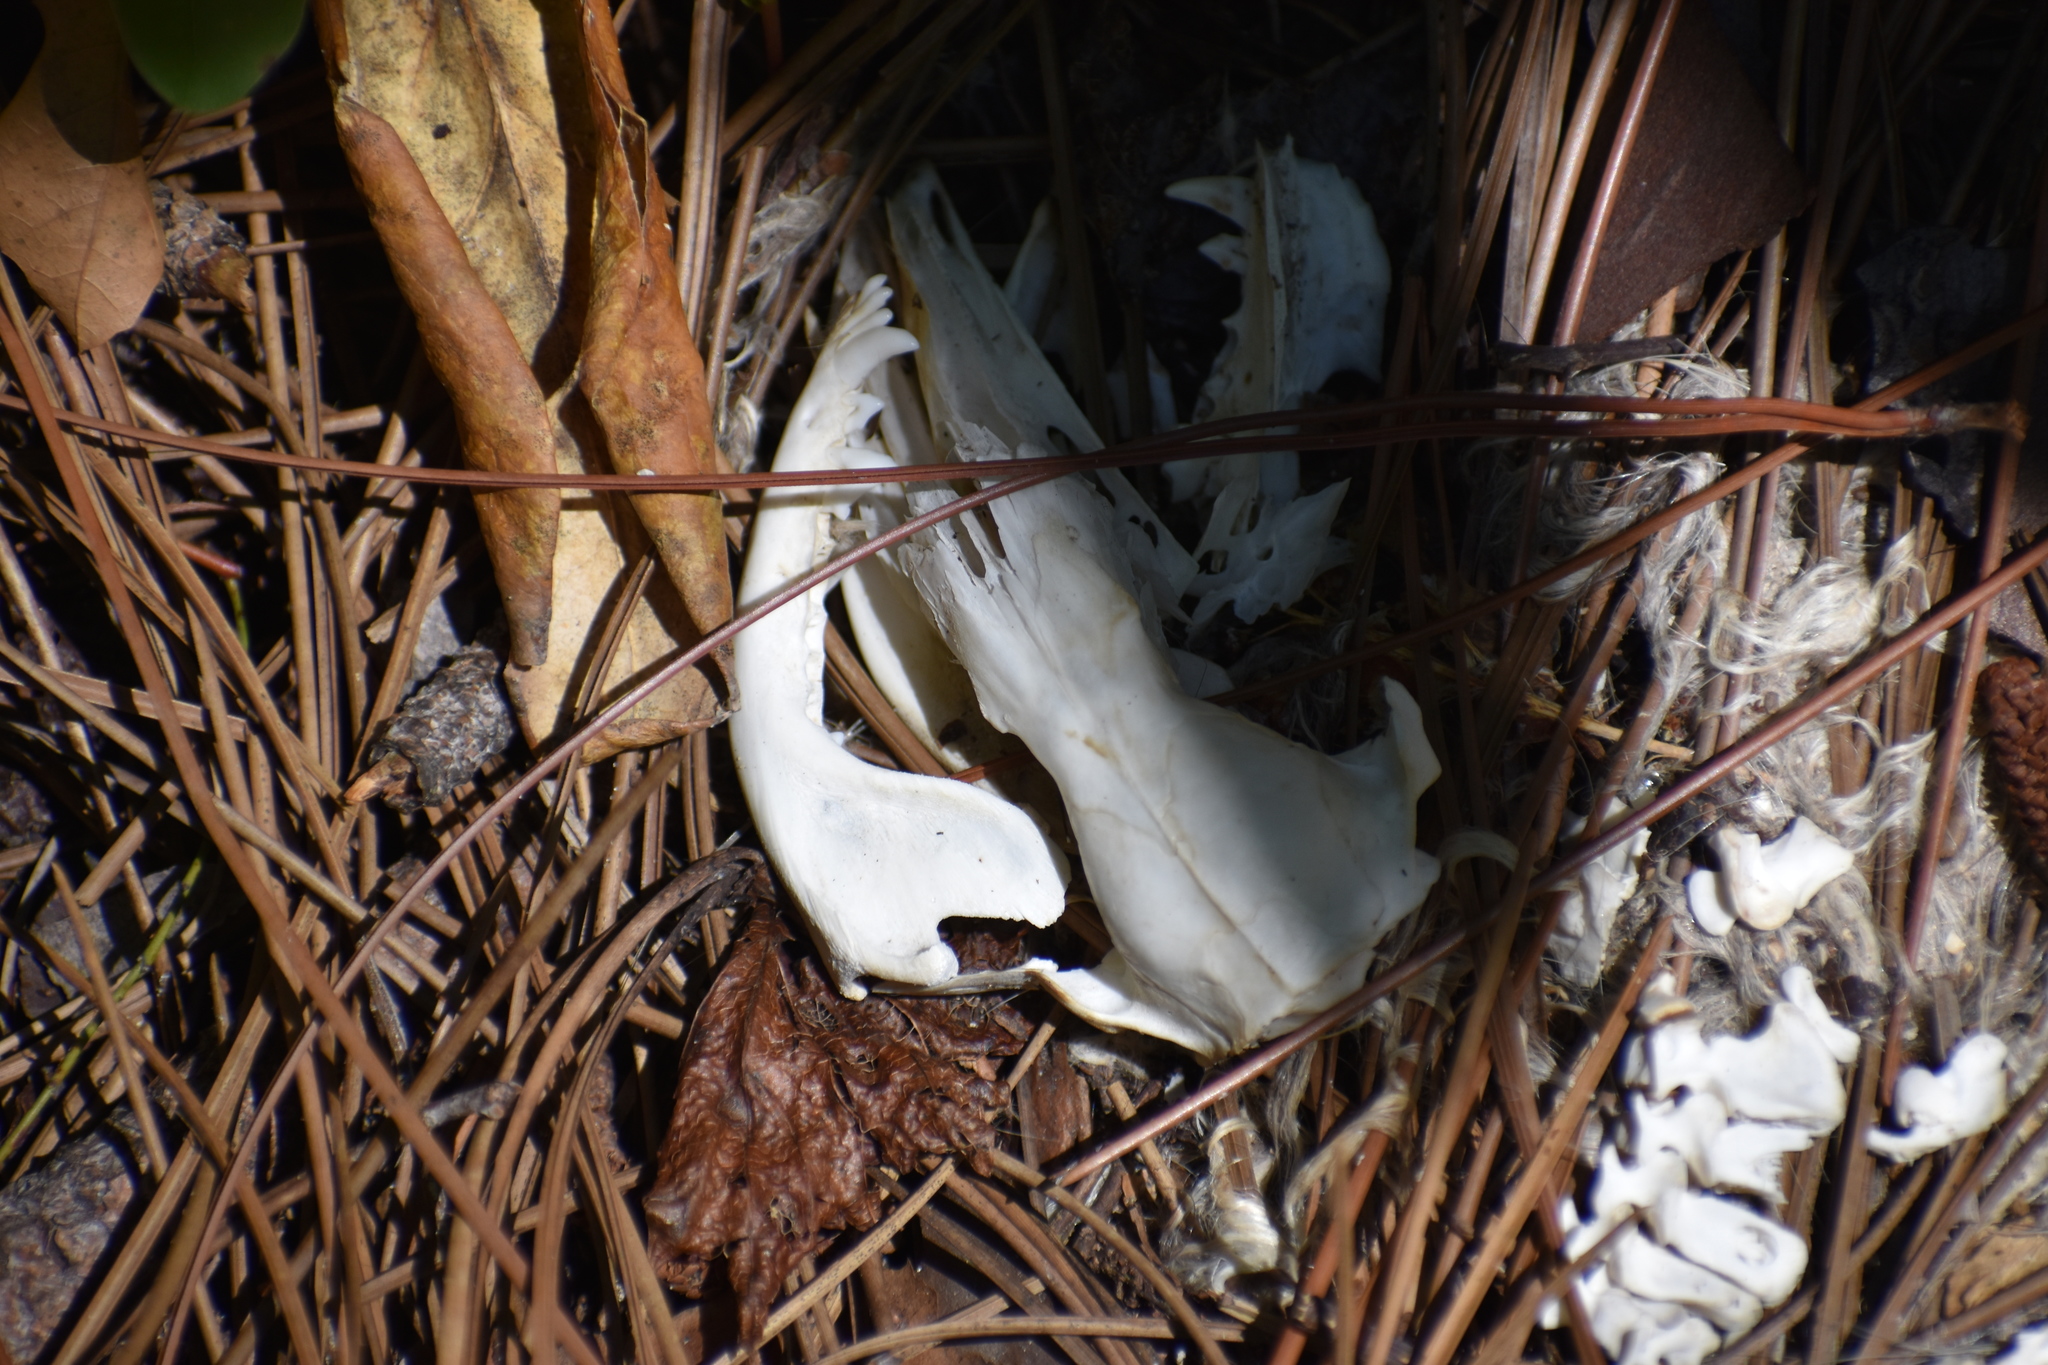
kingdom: Animalia
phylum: Chordata
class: Mammalia
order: Didelphimorphia
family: Didelphidae
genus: Didelphis
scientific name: Didelphis virginiana
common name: Virginia opossum
